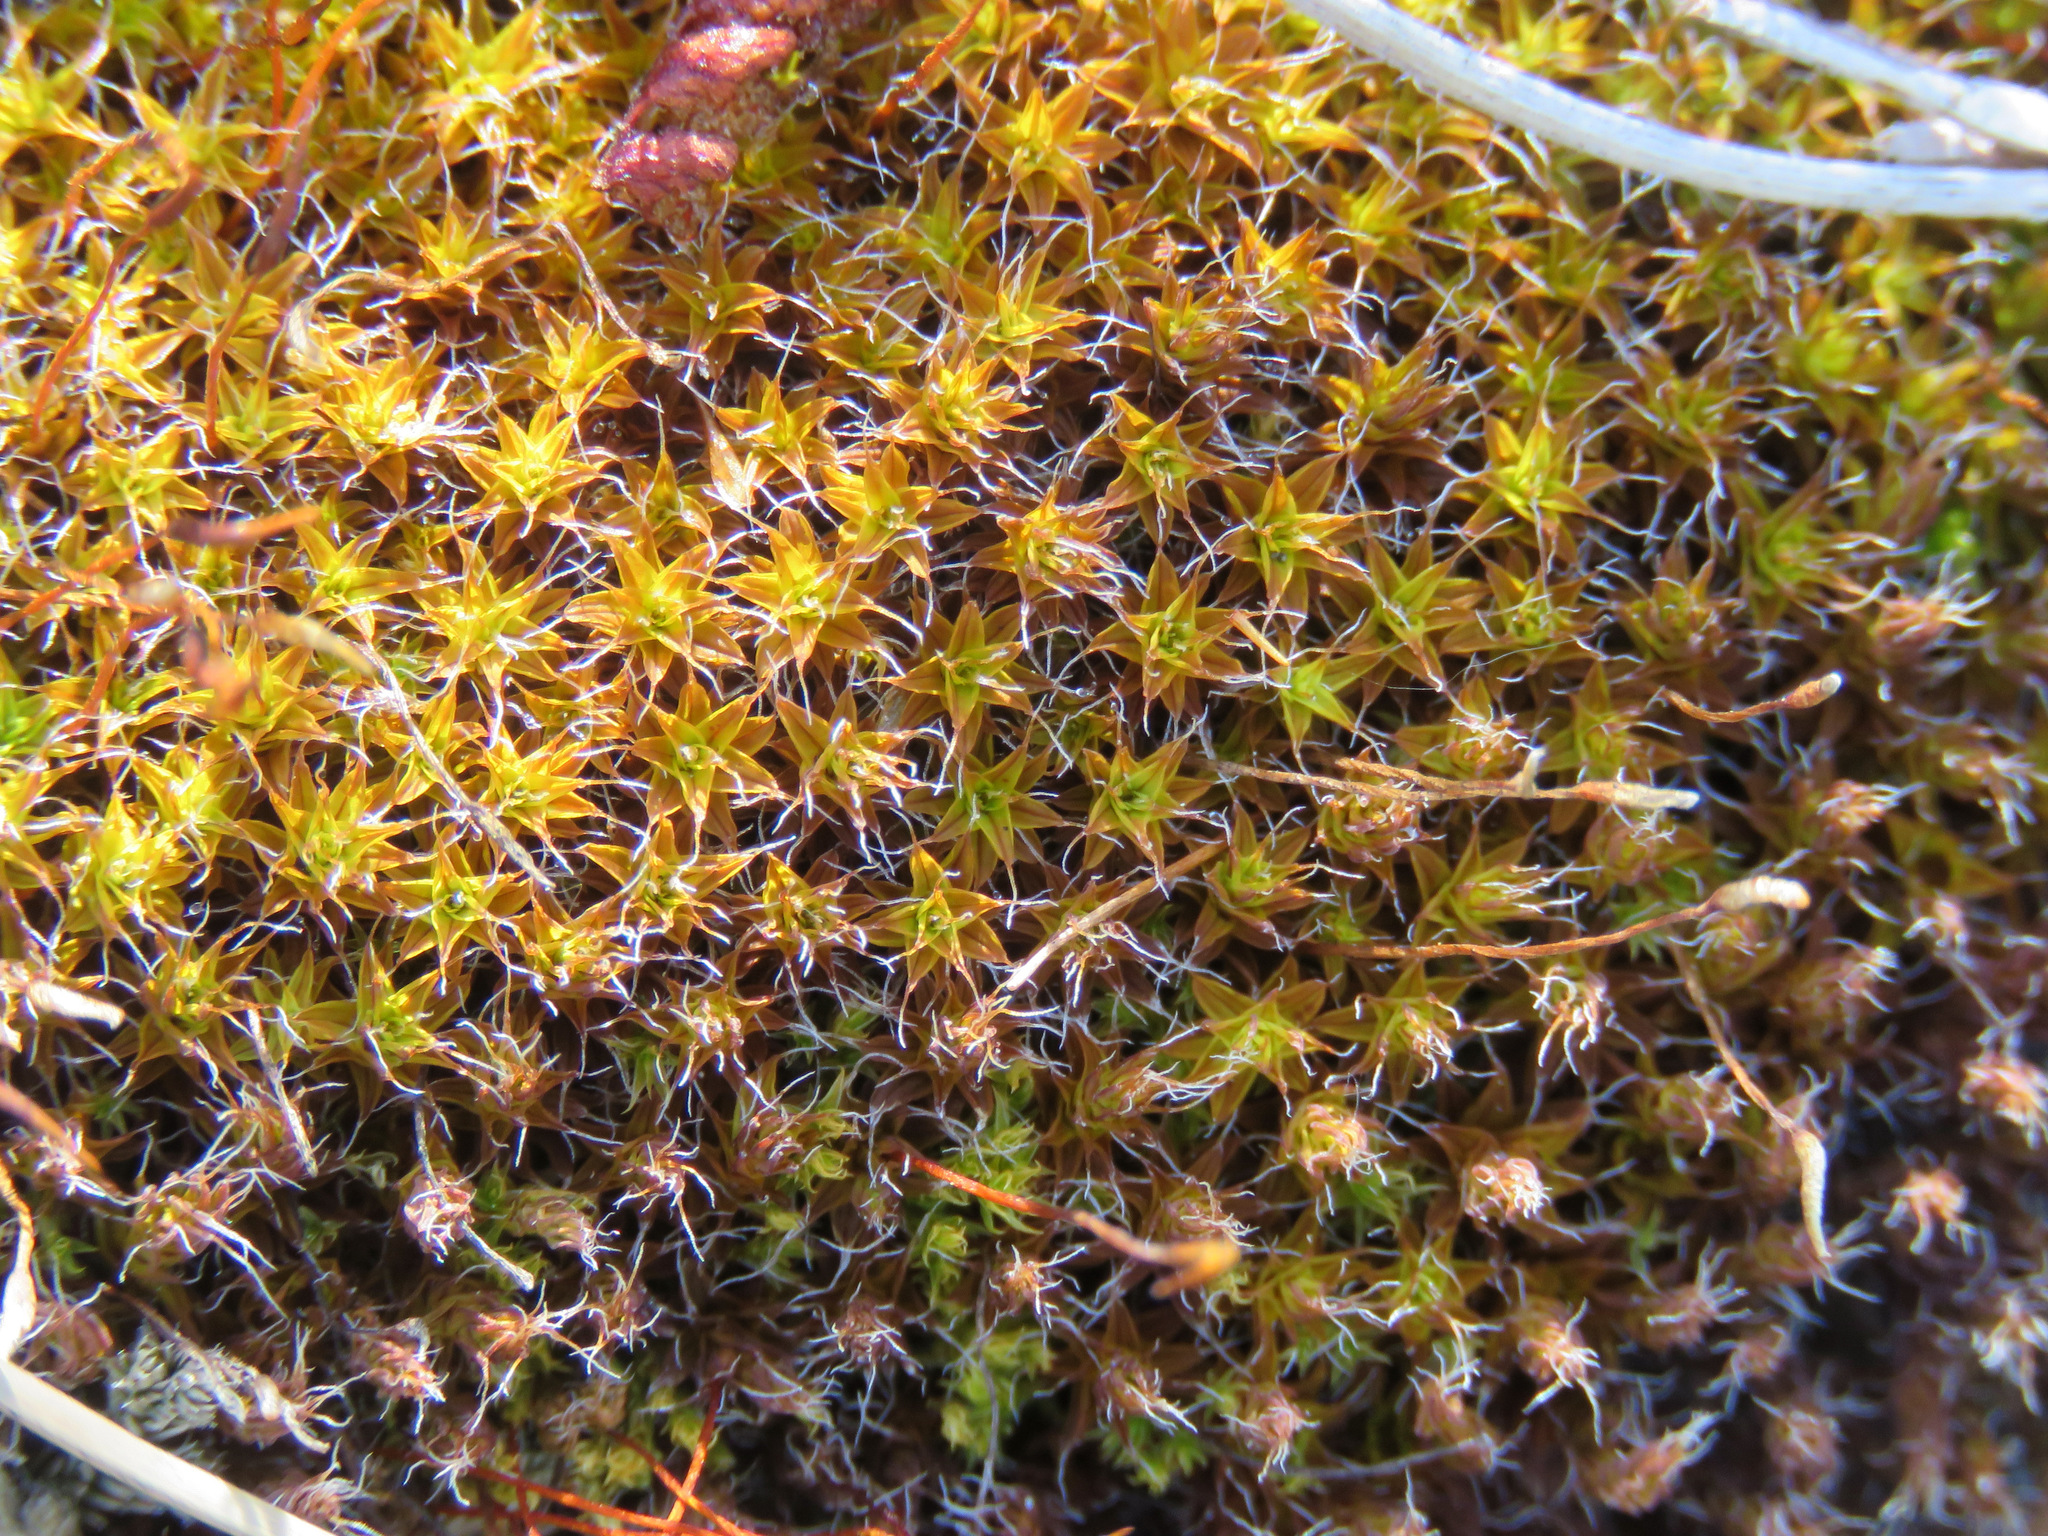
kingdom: Plantae
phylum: Bryophyta
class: Bryopsida
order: Pottiales
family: Pottiaceae
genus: Syntrichia
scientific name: Syntrichia ruralis
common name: Sidewalk screw moss
